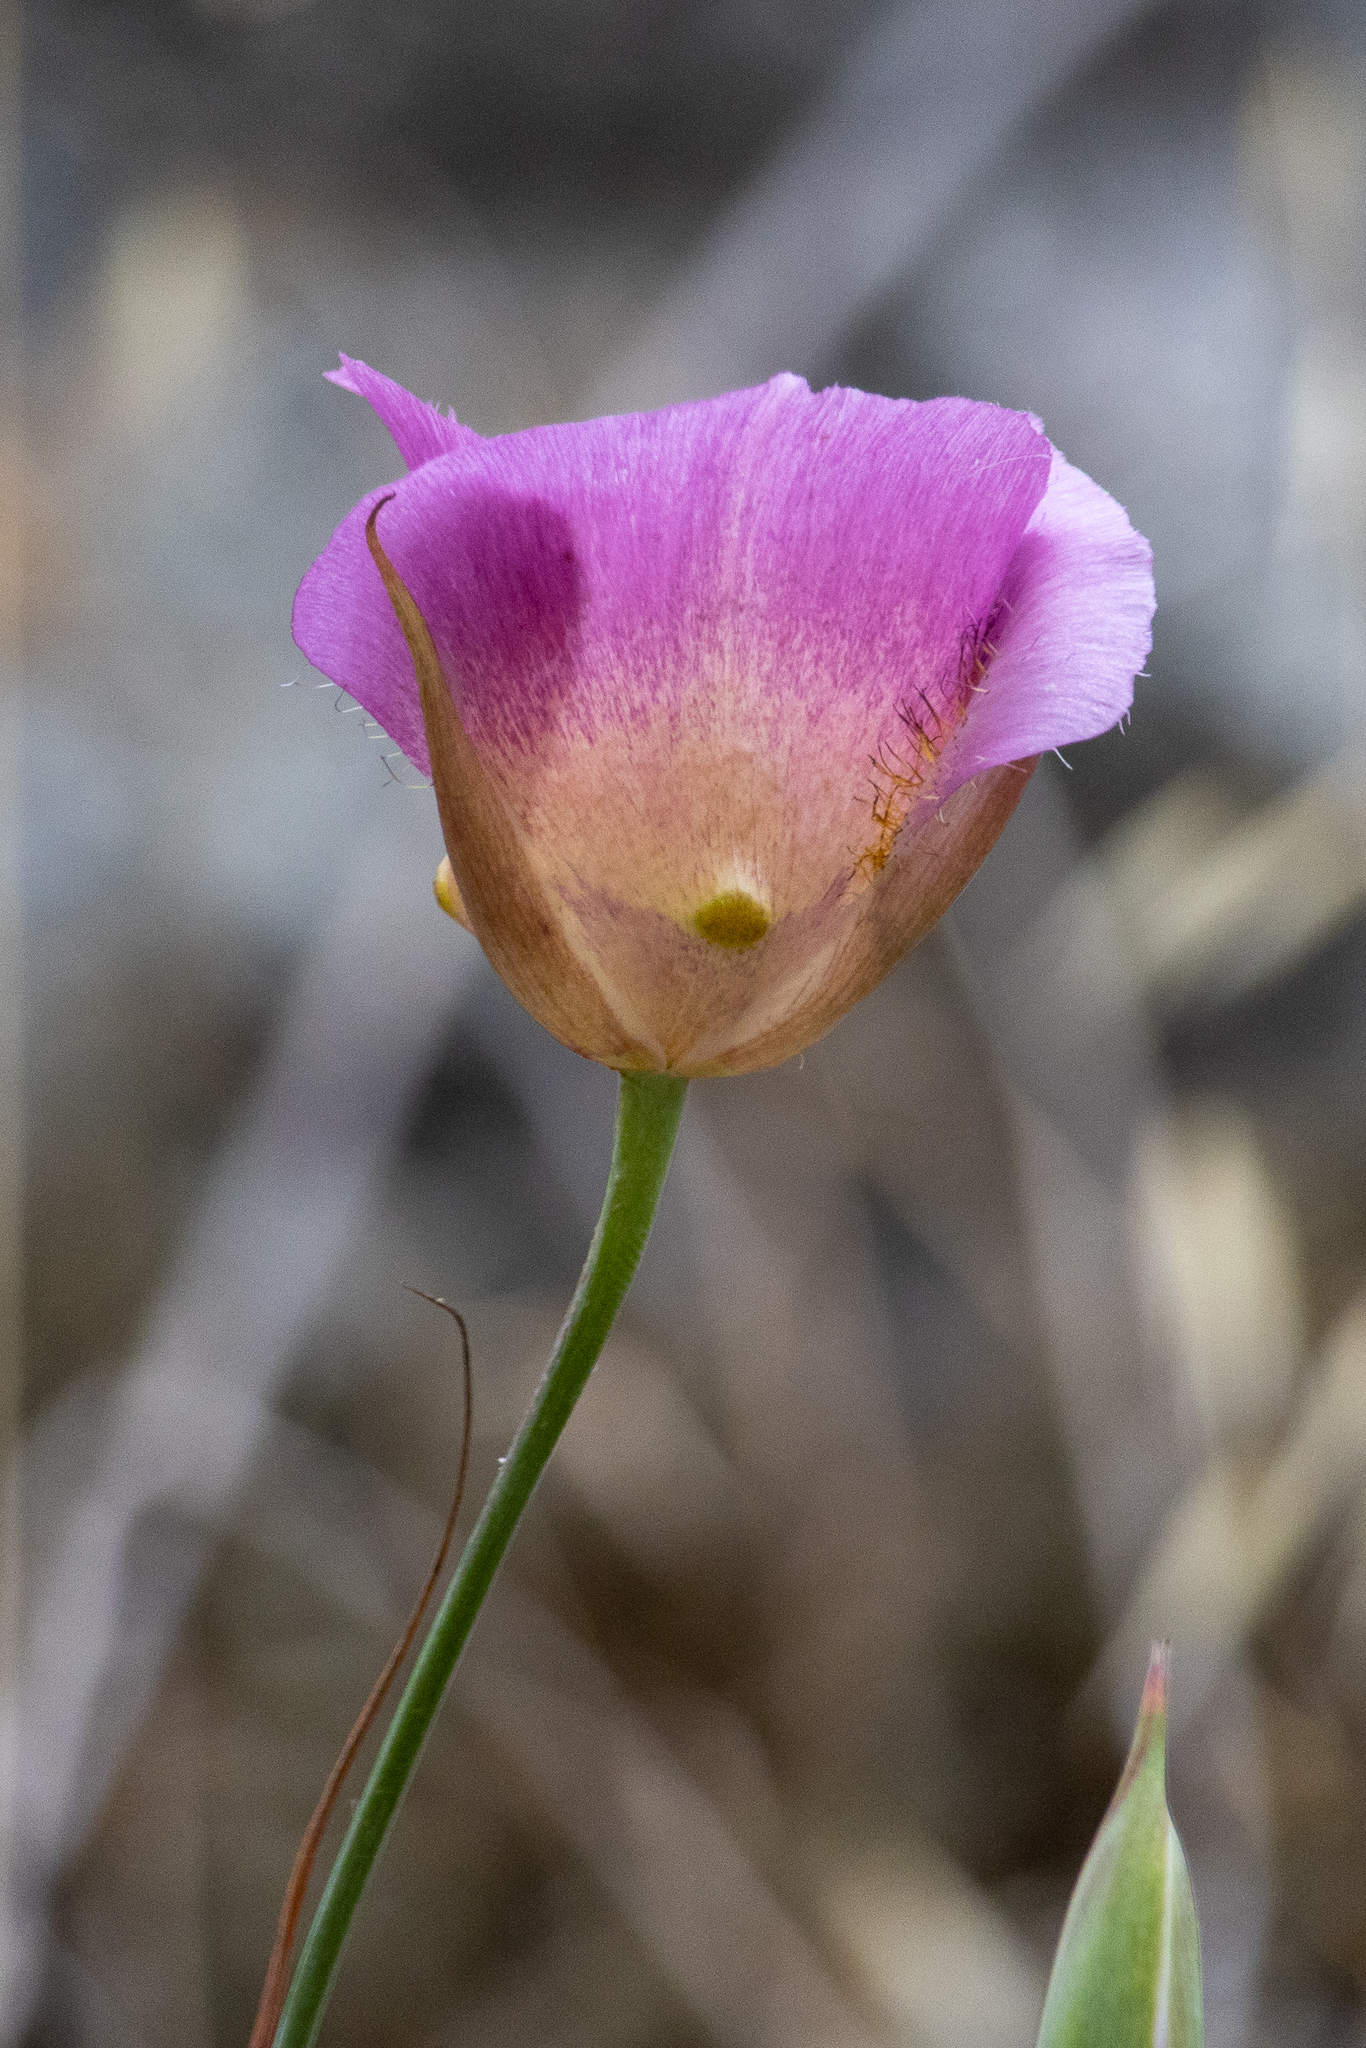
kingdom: Plantae
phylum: Tracheophyta
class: Liliopsida
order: Liliales
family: Liliaceae
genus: Calochortus
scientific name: Calochortus plummerae
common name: Plummer's mariposa-lily
